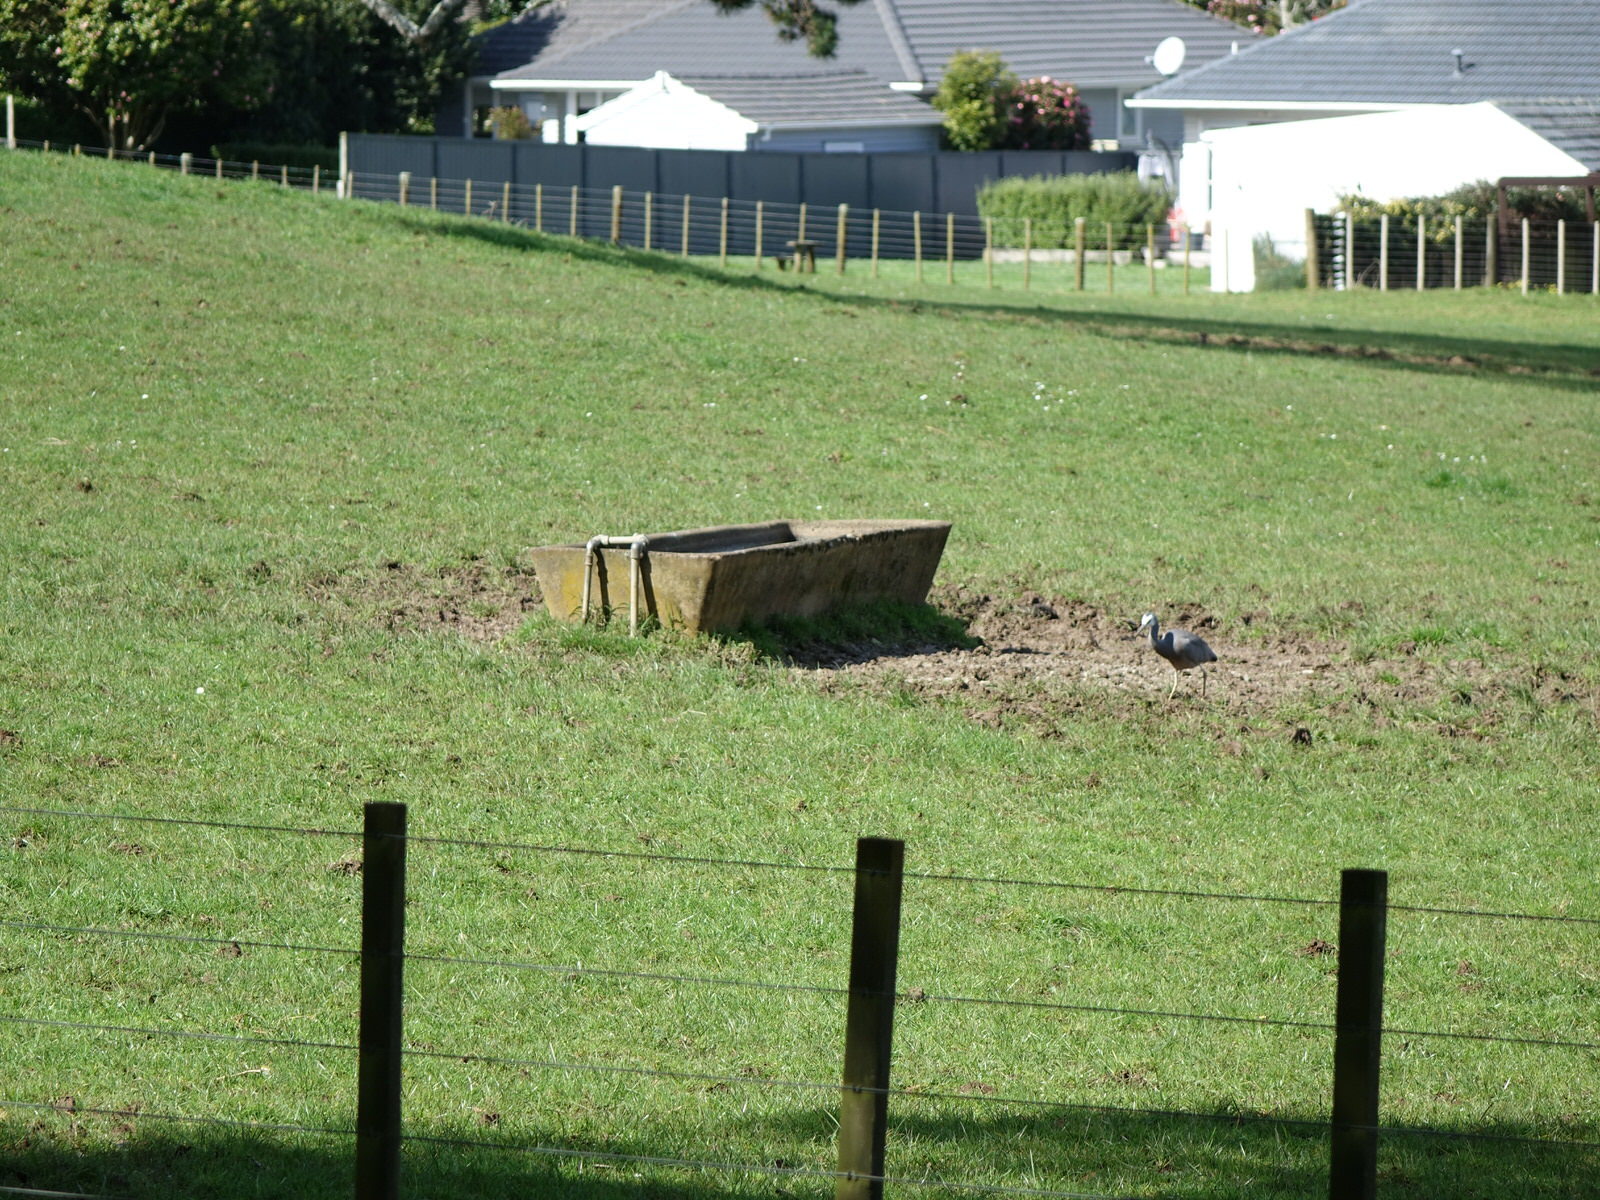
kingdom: Animalia
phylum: Chordata
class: Aves
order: Pelecaniformes
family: Ardeidae
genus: Egretta
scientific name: Egretta novaehollandiae
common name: White-faced heron
